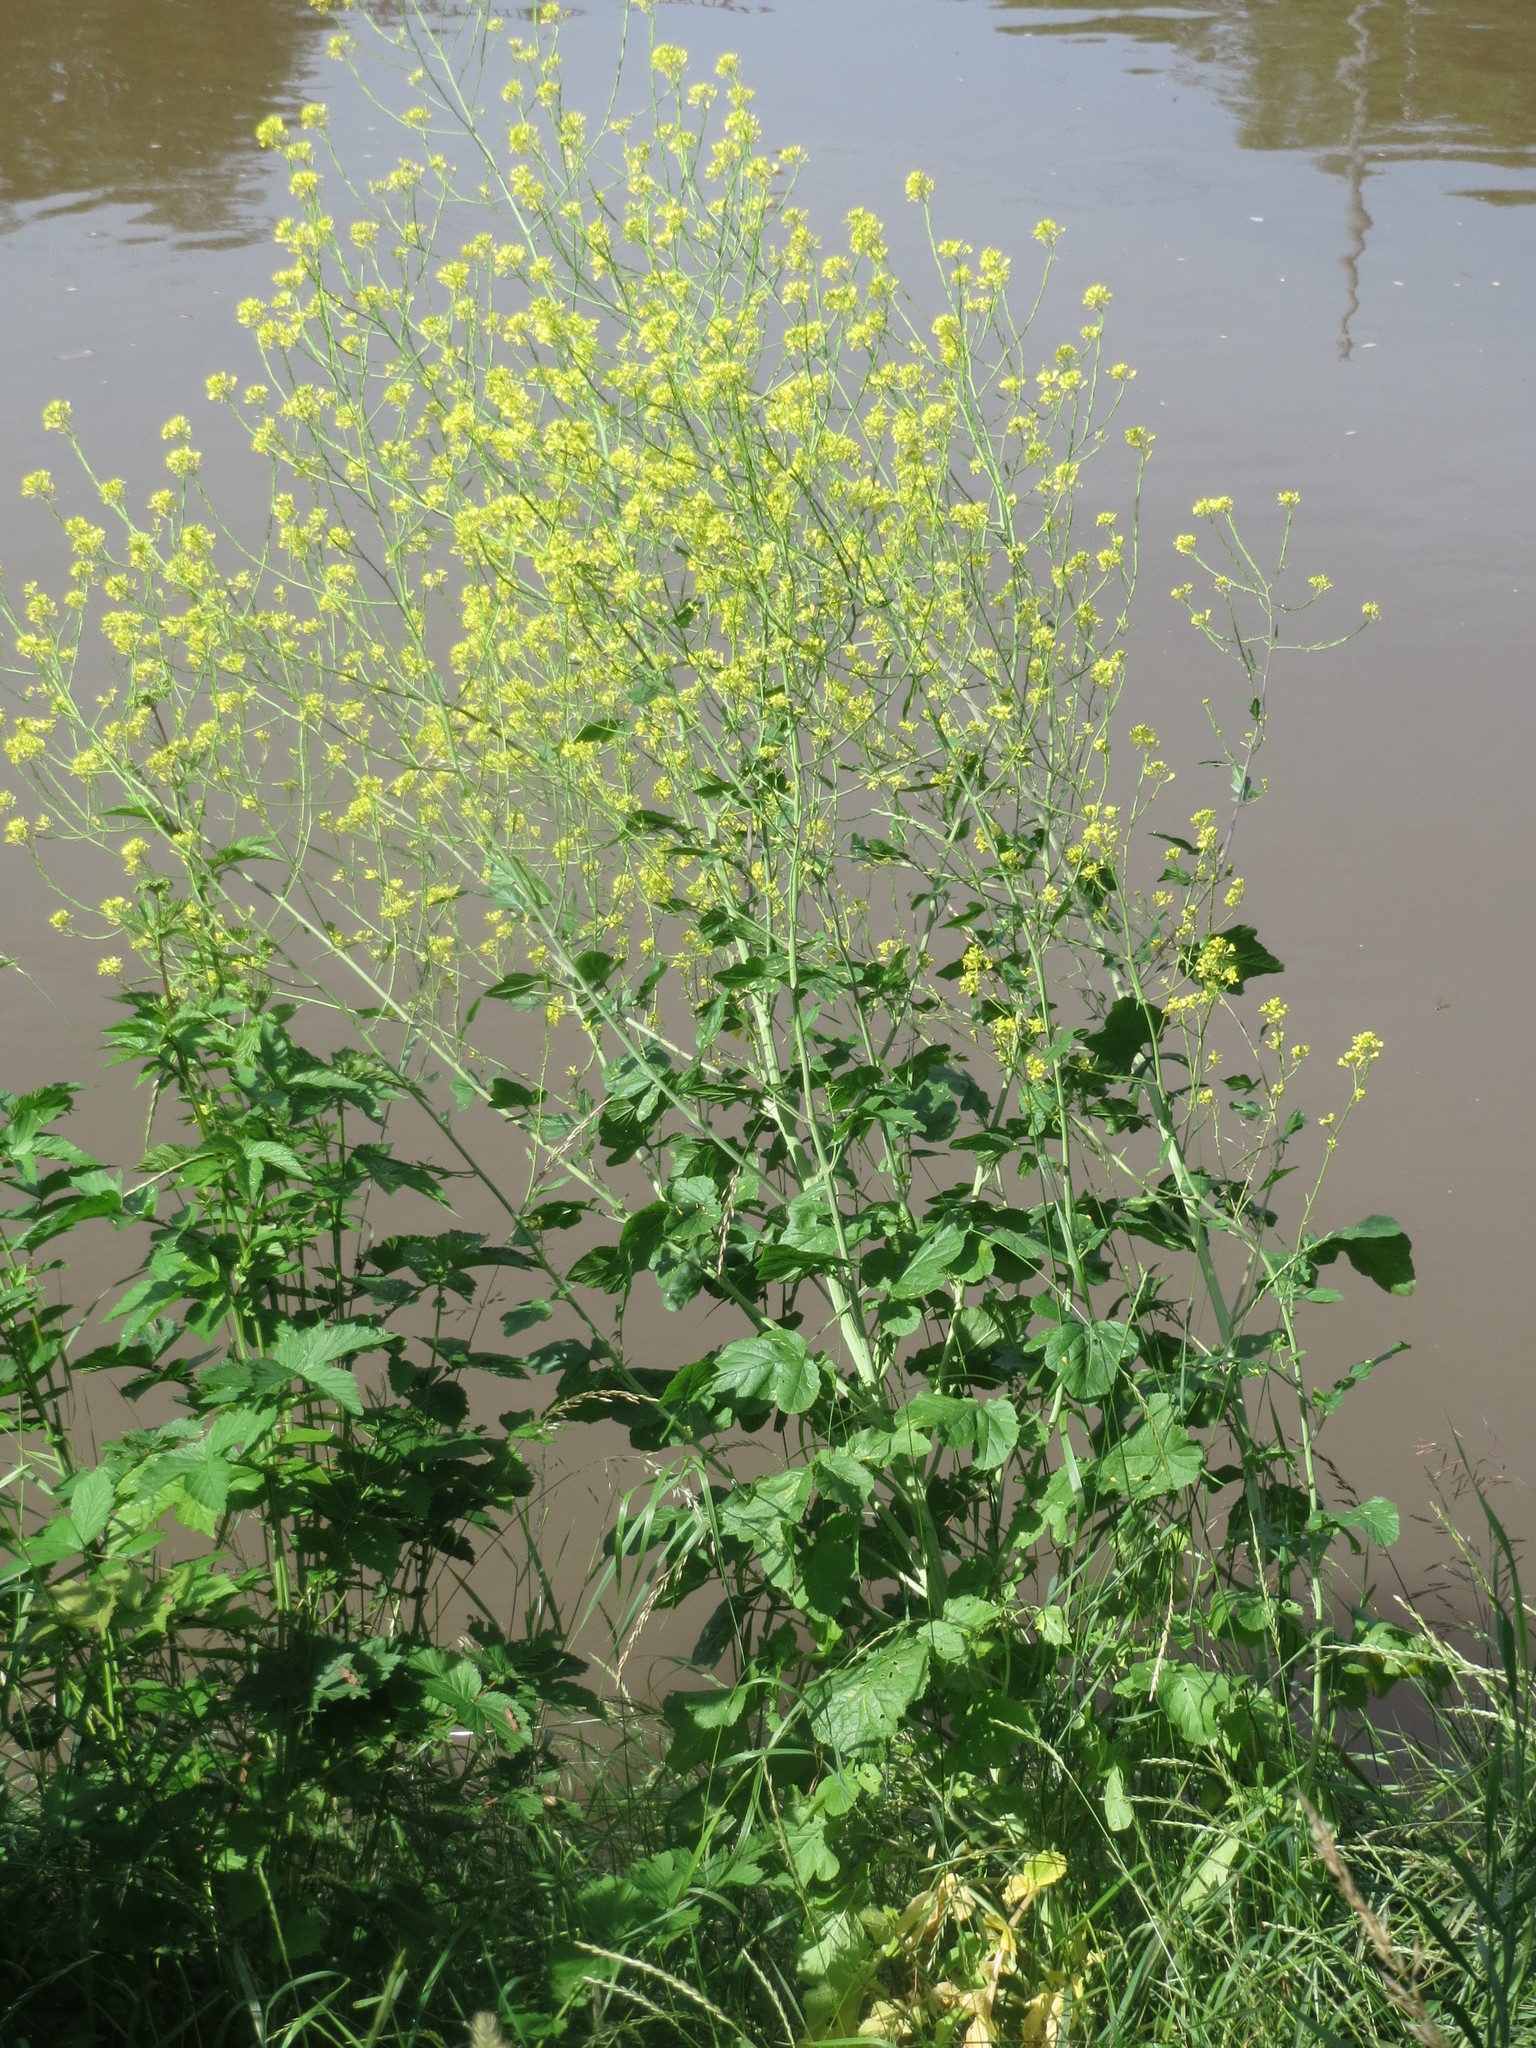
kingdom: Plantae
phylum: Tracheophyta
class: Magnoliopsida
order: Brassicales
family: Brassicaceae
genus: Brassica
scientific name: Brassica nigra
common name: Black mustard
